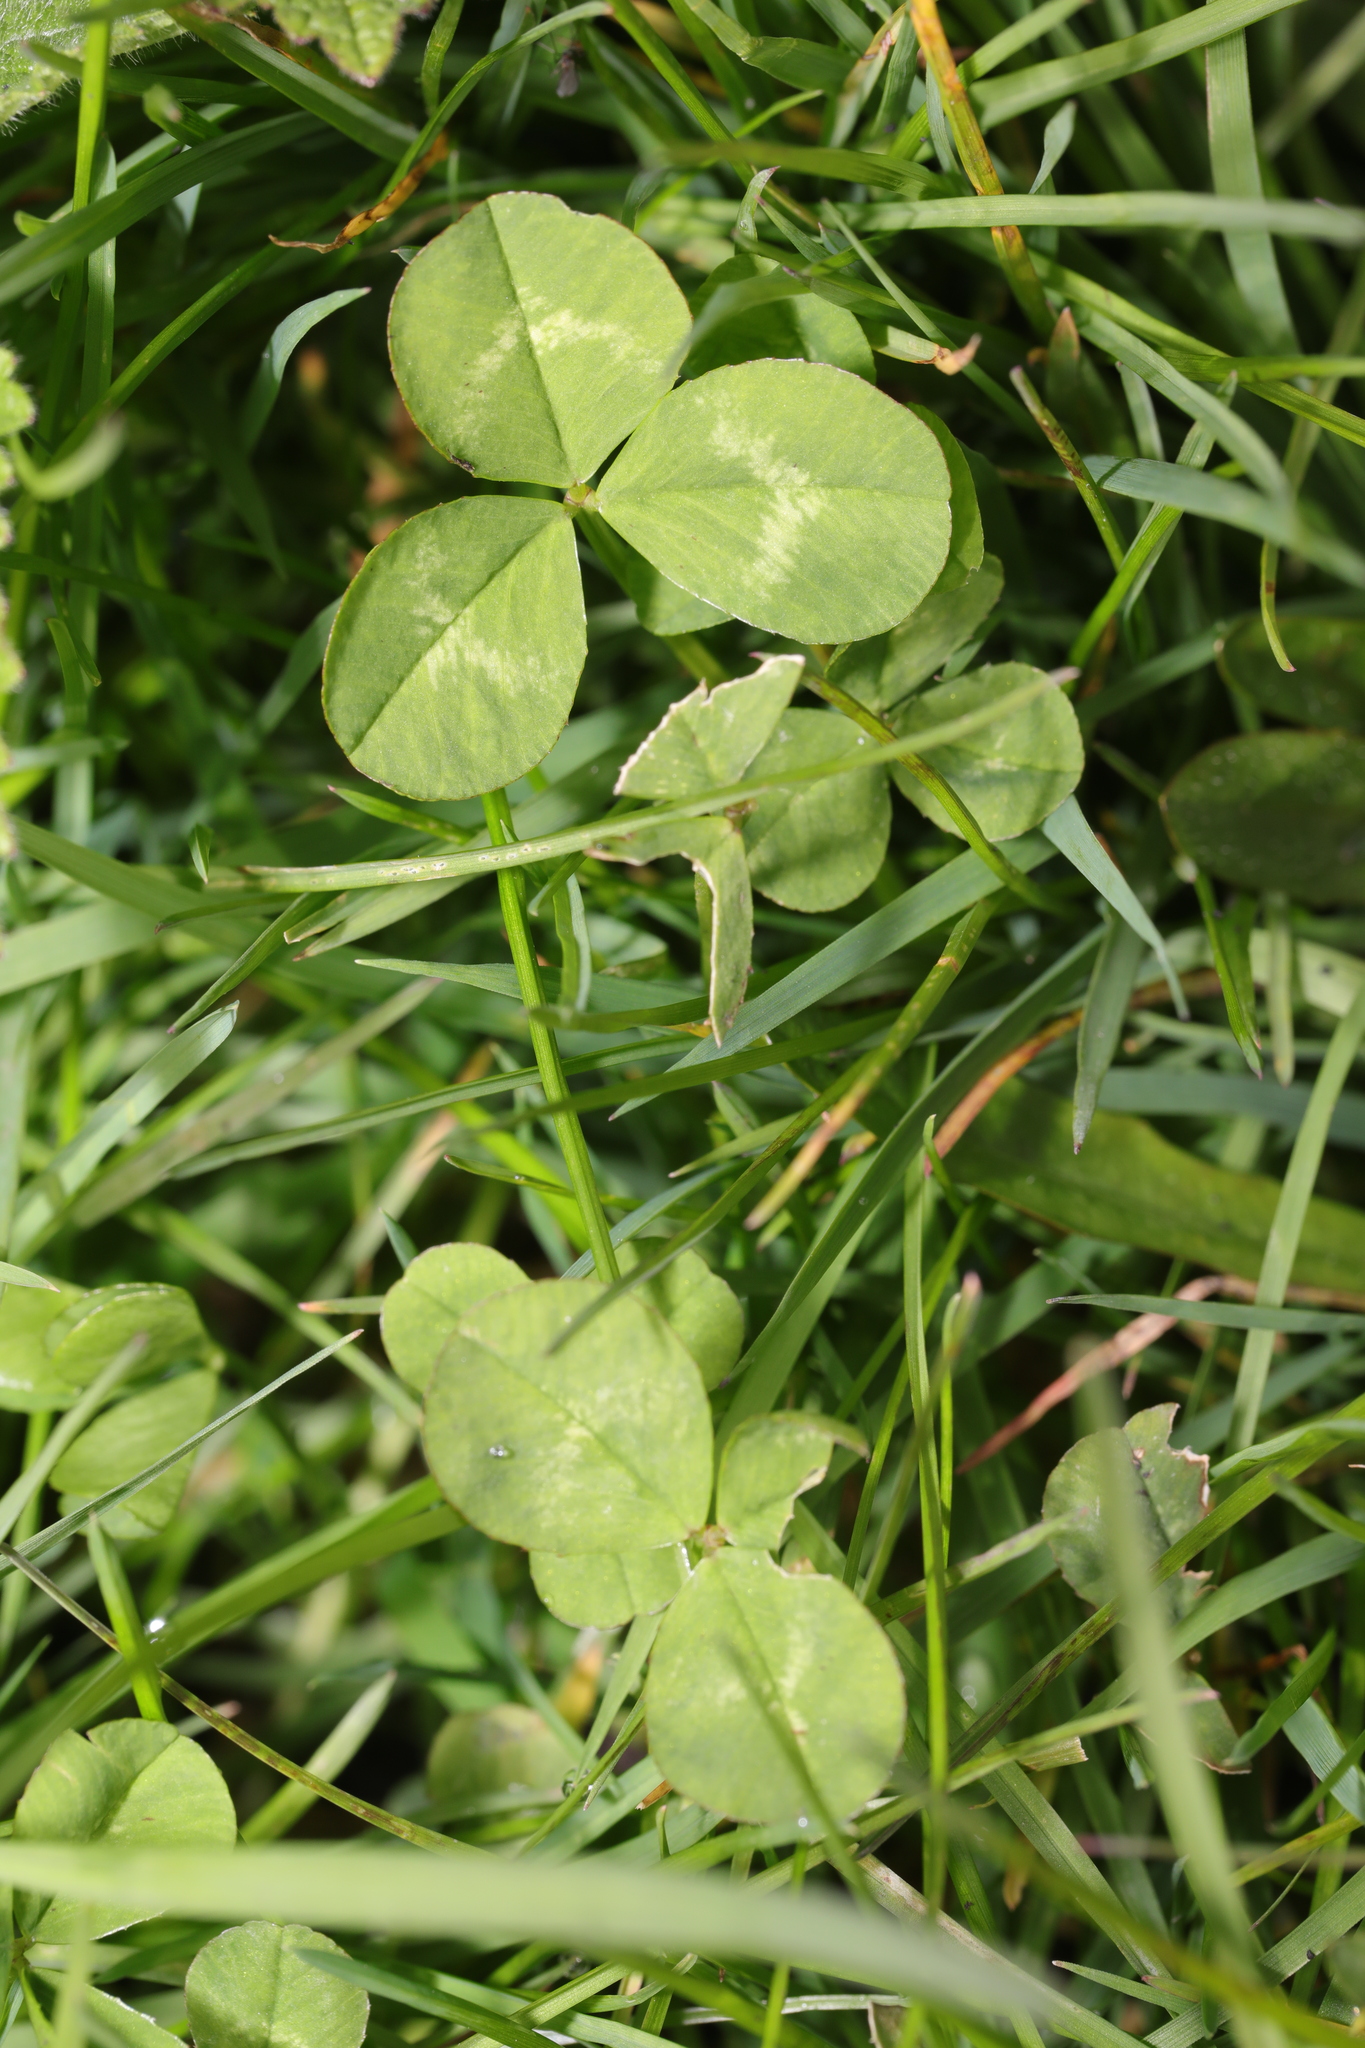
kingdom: Plantae
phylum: Tracheophyta
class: Magnoliopsida
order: Fabales
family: Fabaceae
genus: Trifolium
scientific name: Trifolium repens
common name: White clover
